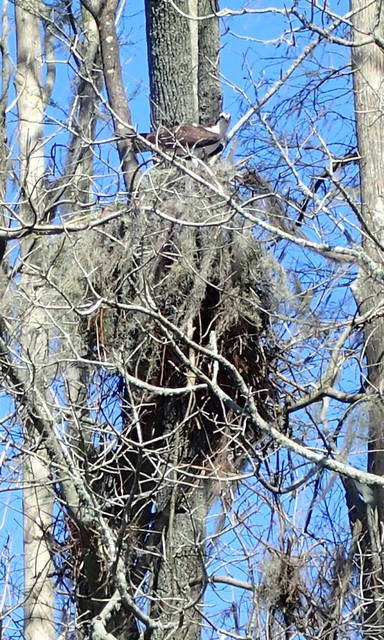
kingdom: Animalia
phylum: Chordata
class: Aves
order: Accipitriformes
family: Pandionidae
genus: Pandion
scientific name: Pandion haliaetus
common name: Osprey
